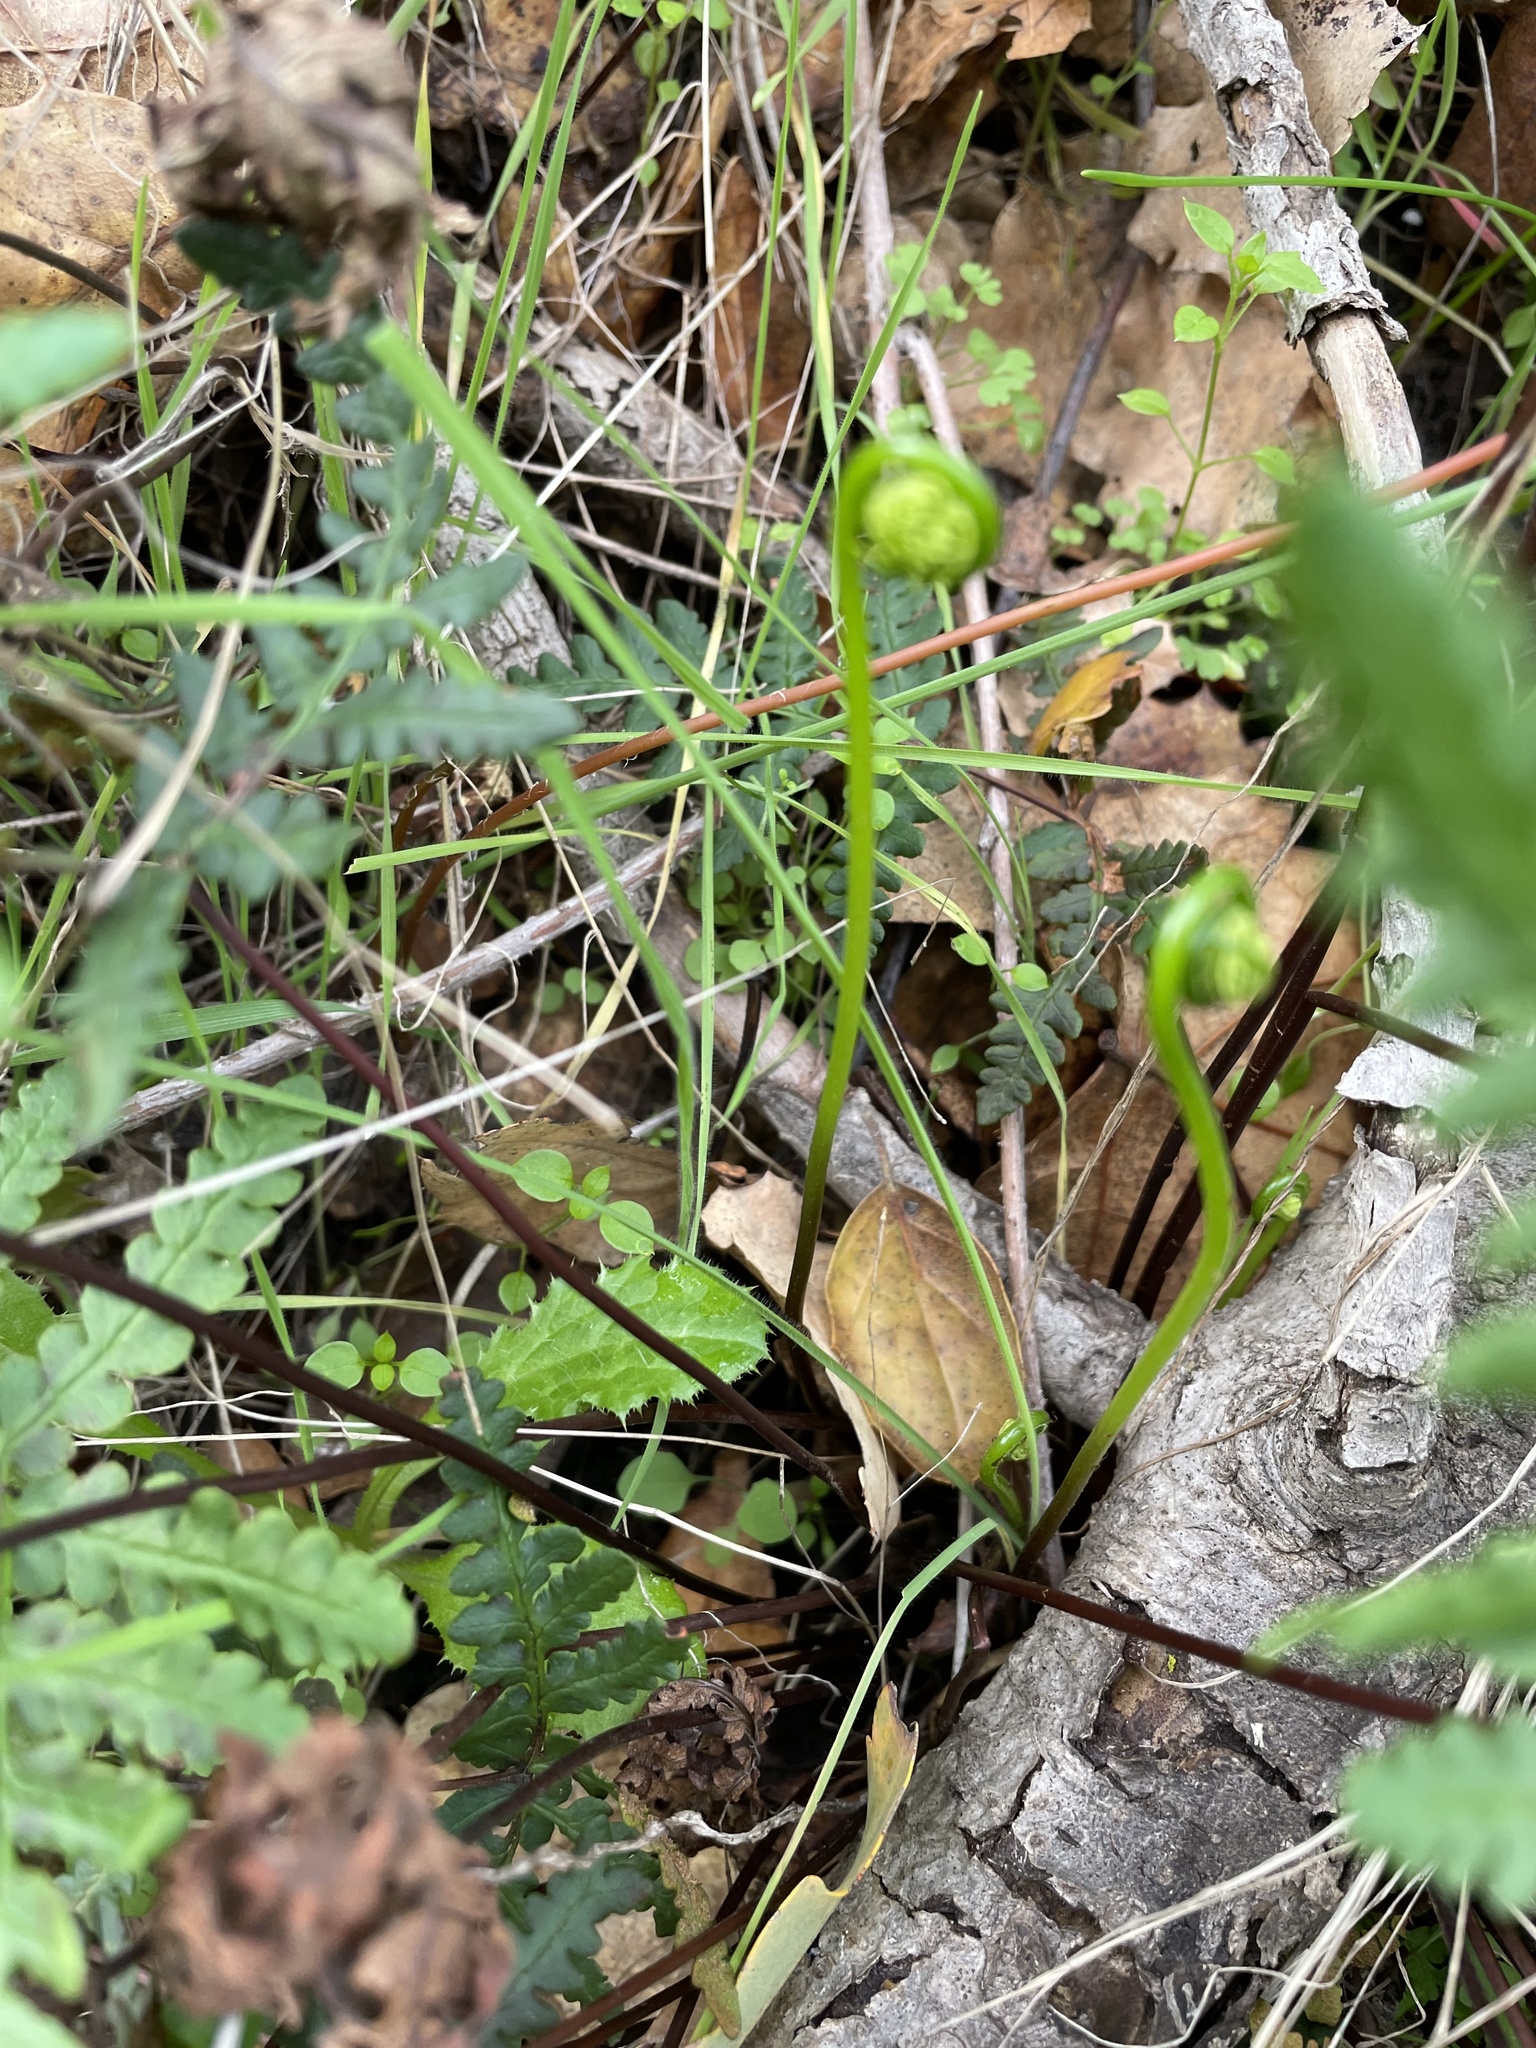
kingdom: Plantae
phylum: Tracheophyta
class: Polypodiopsida
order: Polypodiales
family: Pteridaceae
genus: Pentagramma
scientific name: Pentagramma triangularis
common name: Gold fern
